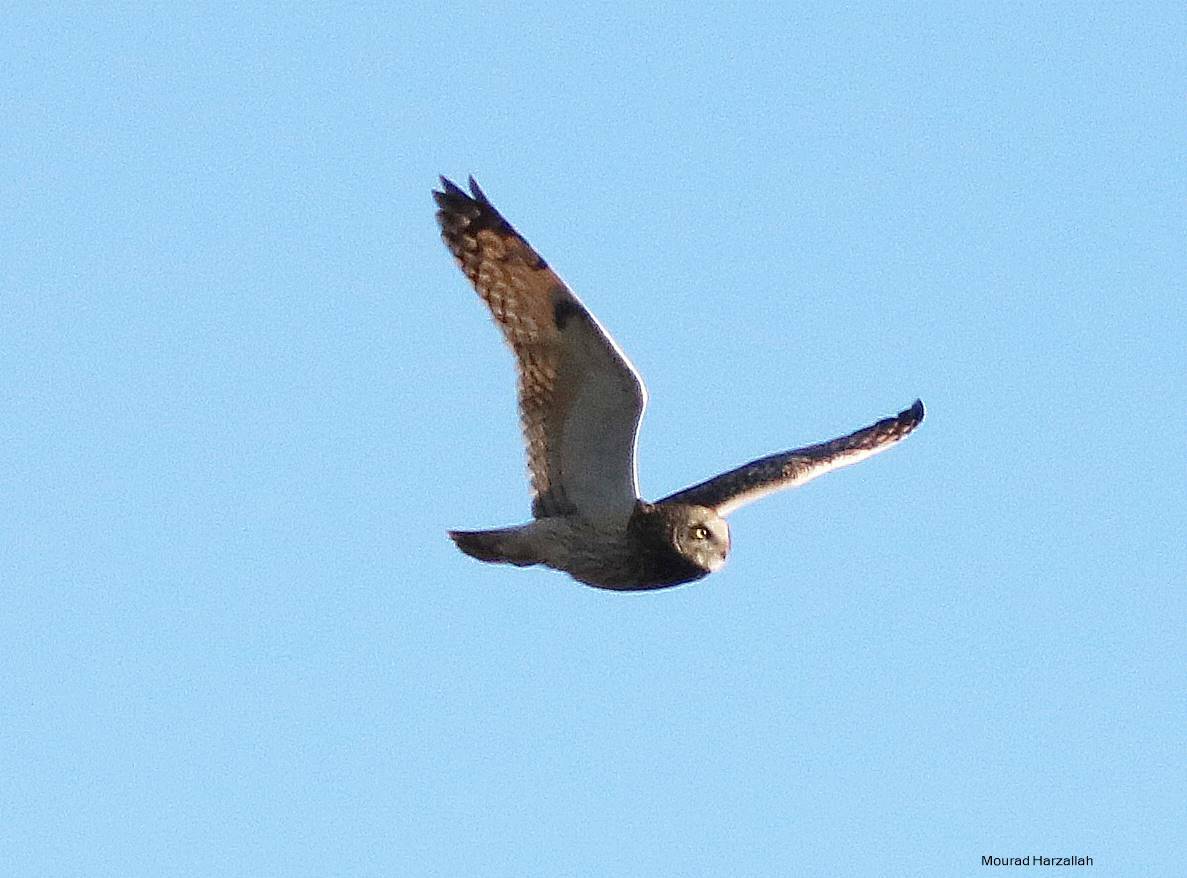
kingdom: Animalia
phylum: Chordata
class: Aves
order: Strigiformes
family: Strigidae
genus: Asio
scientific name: Asio flammeus
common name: Short-eared owl
